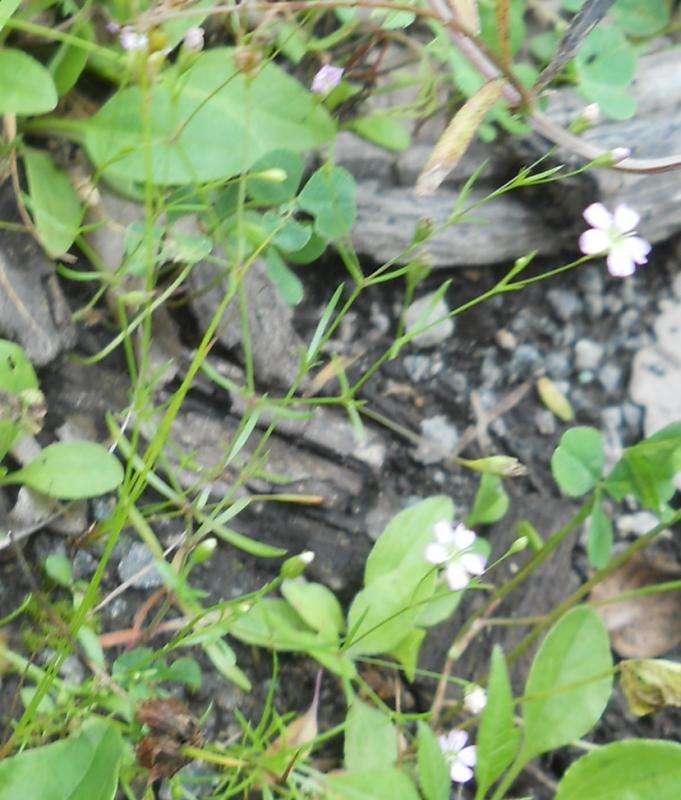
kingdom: Plantae
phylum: Tracheophyta
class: Magnoliopsida
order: Caryophyllales
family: Caryophyllaceae
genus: Psammophiliella
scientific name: Psammophiliella muralis
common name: Cushion baby's-breath
